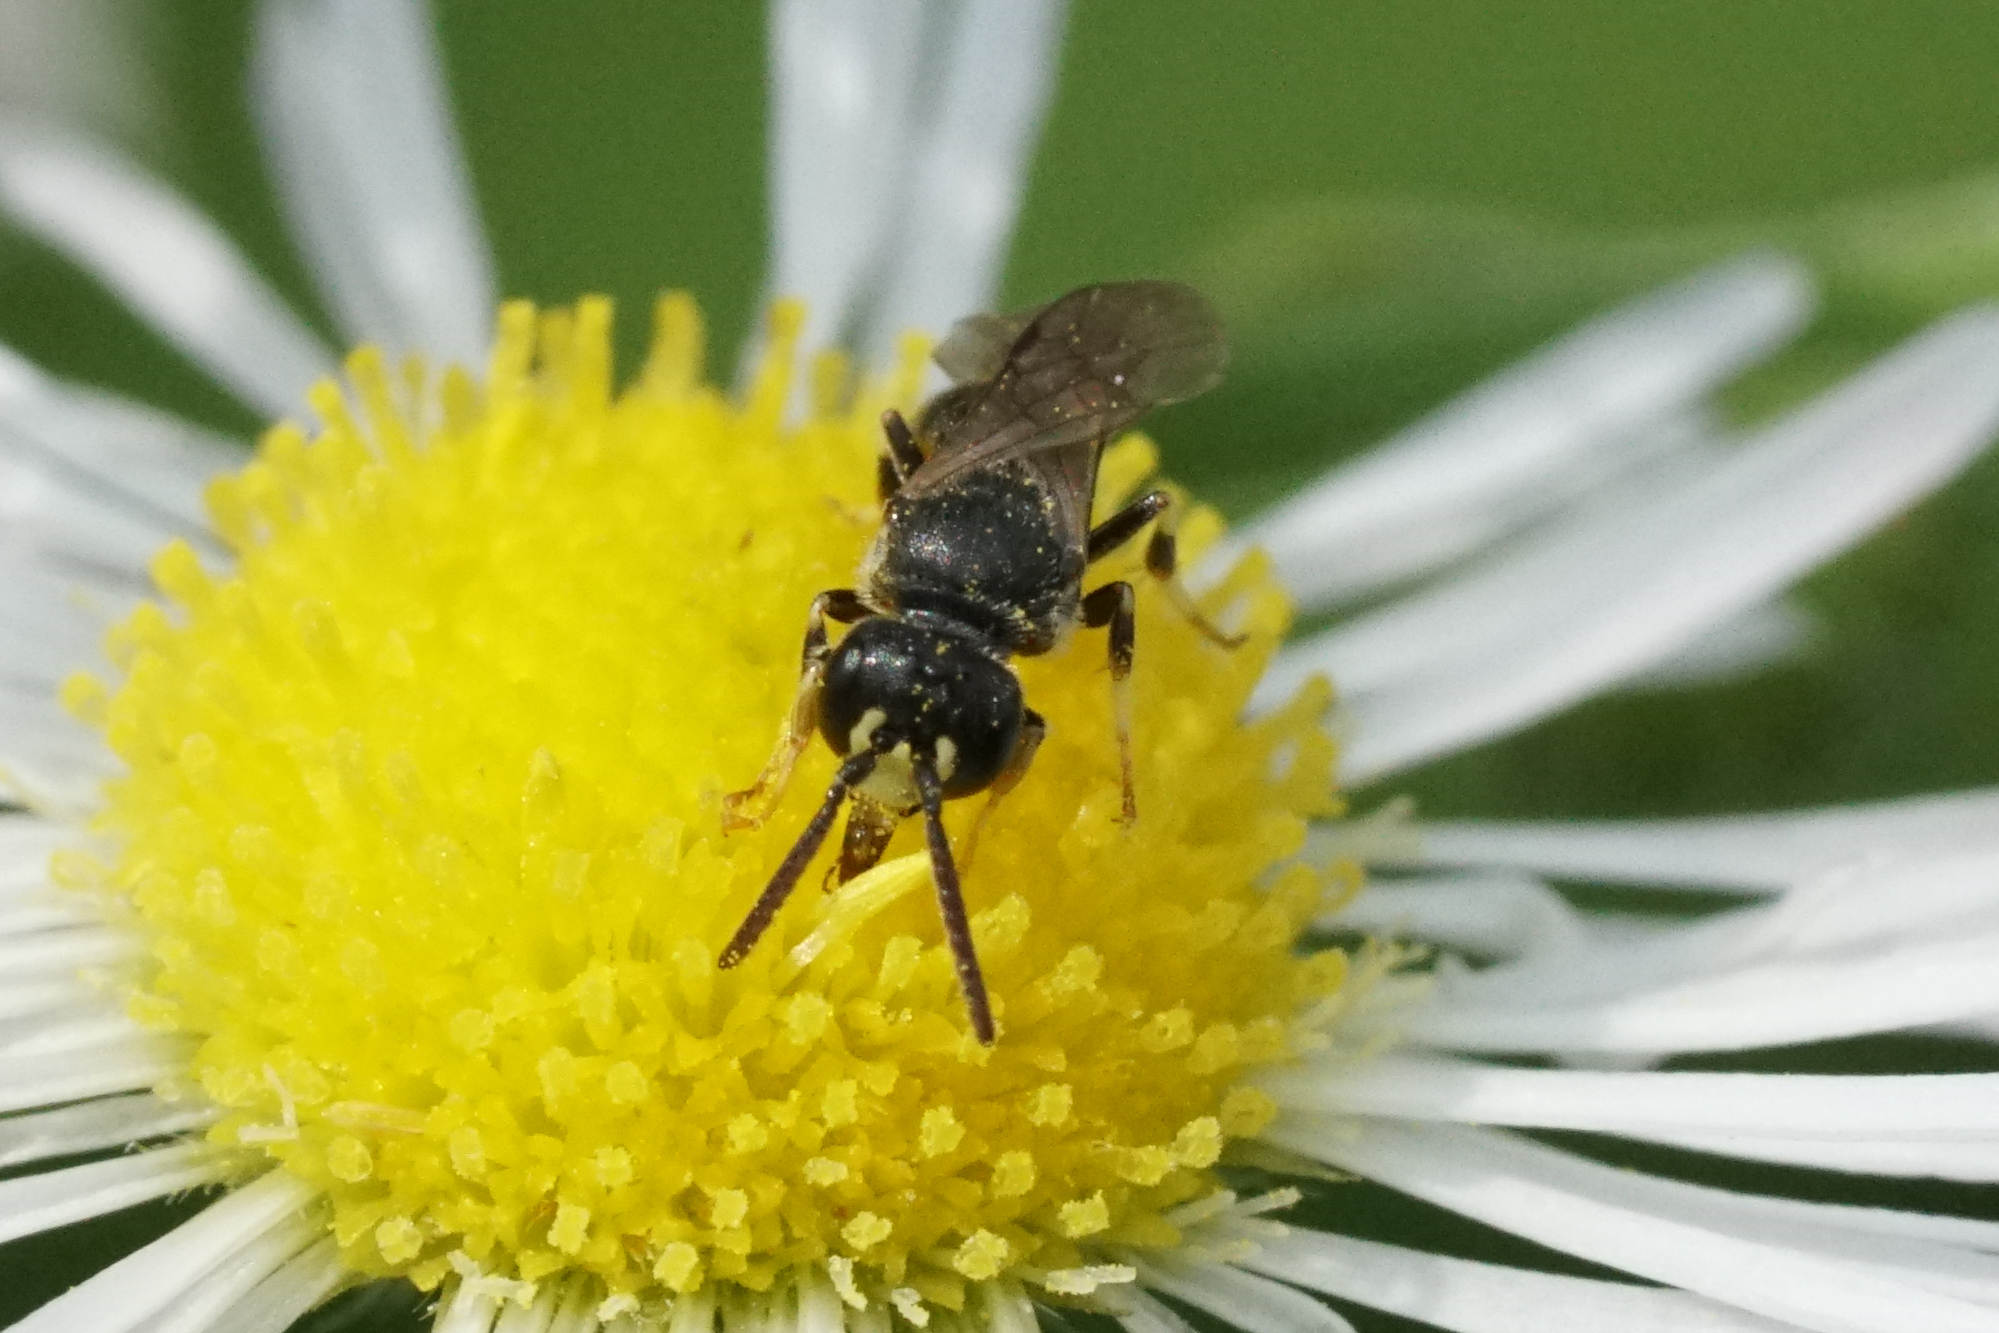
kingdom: Animalia
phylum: Arthropoda
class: Insecta
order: Hymenoptera
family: Colletidae
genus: Hylaeus
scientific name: Hylaeus mesillae
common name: Mesilla masked bee
